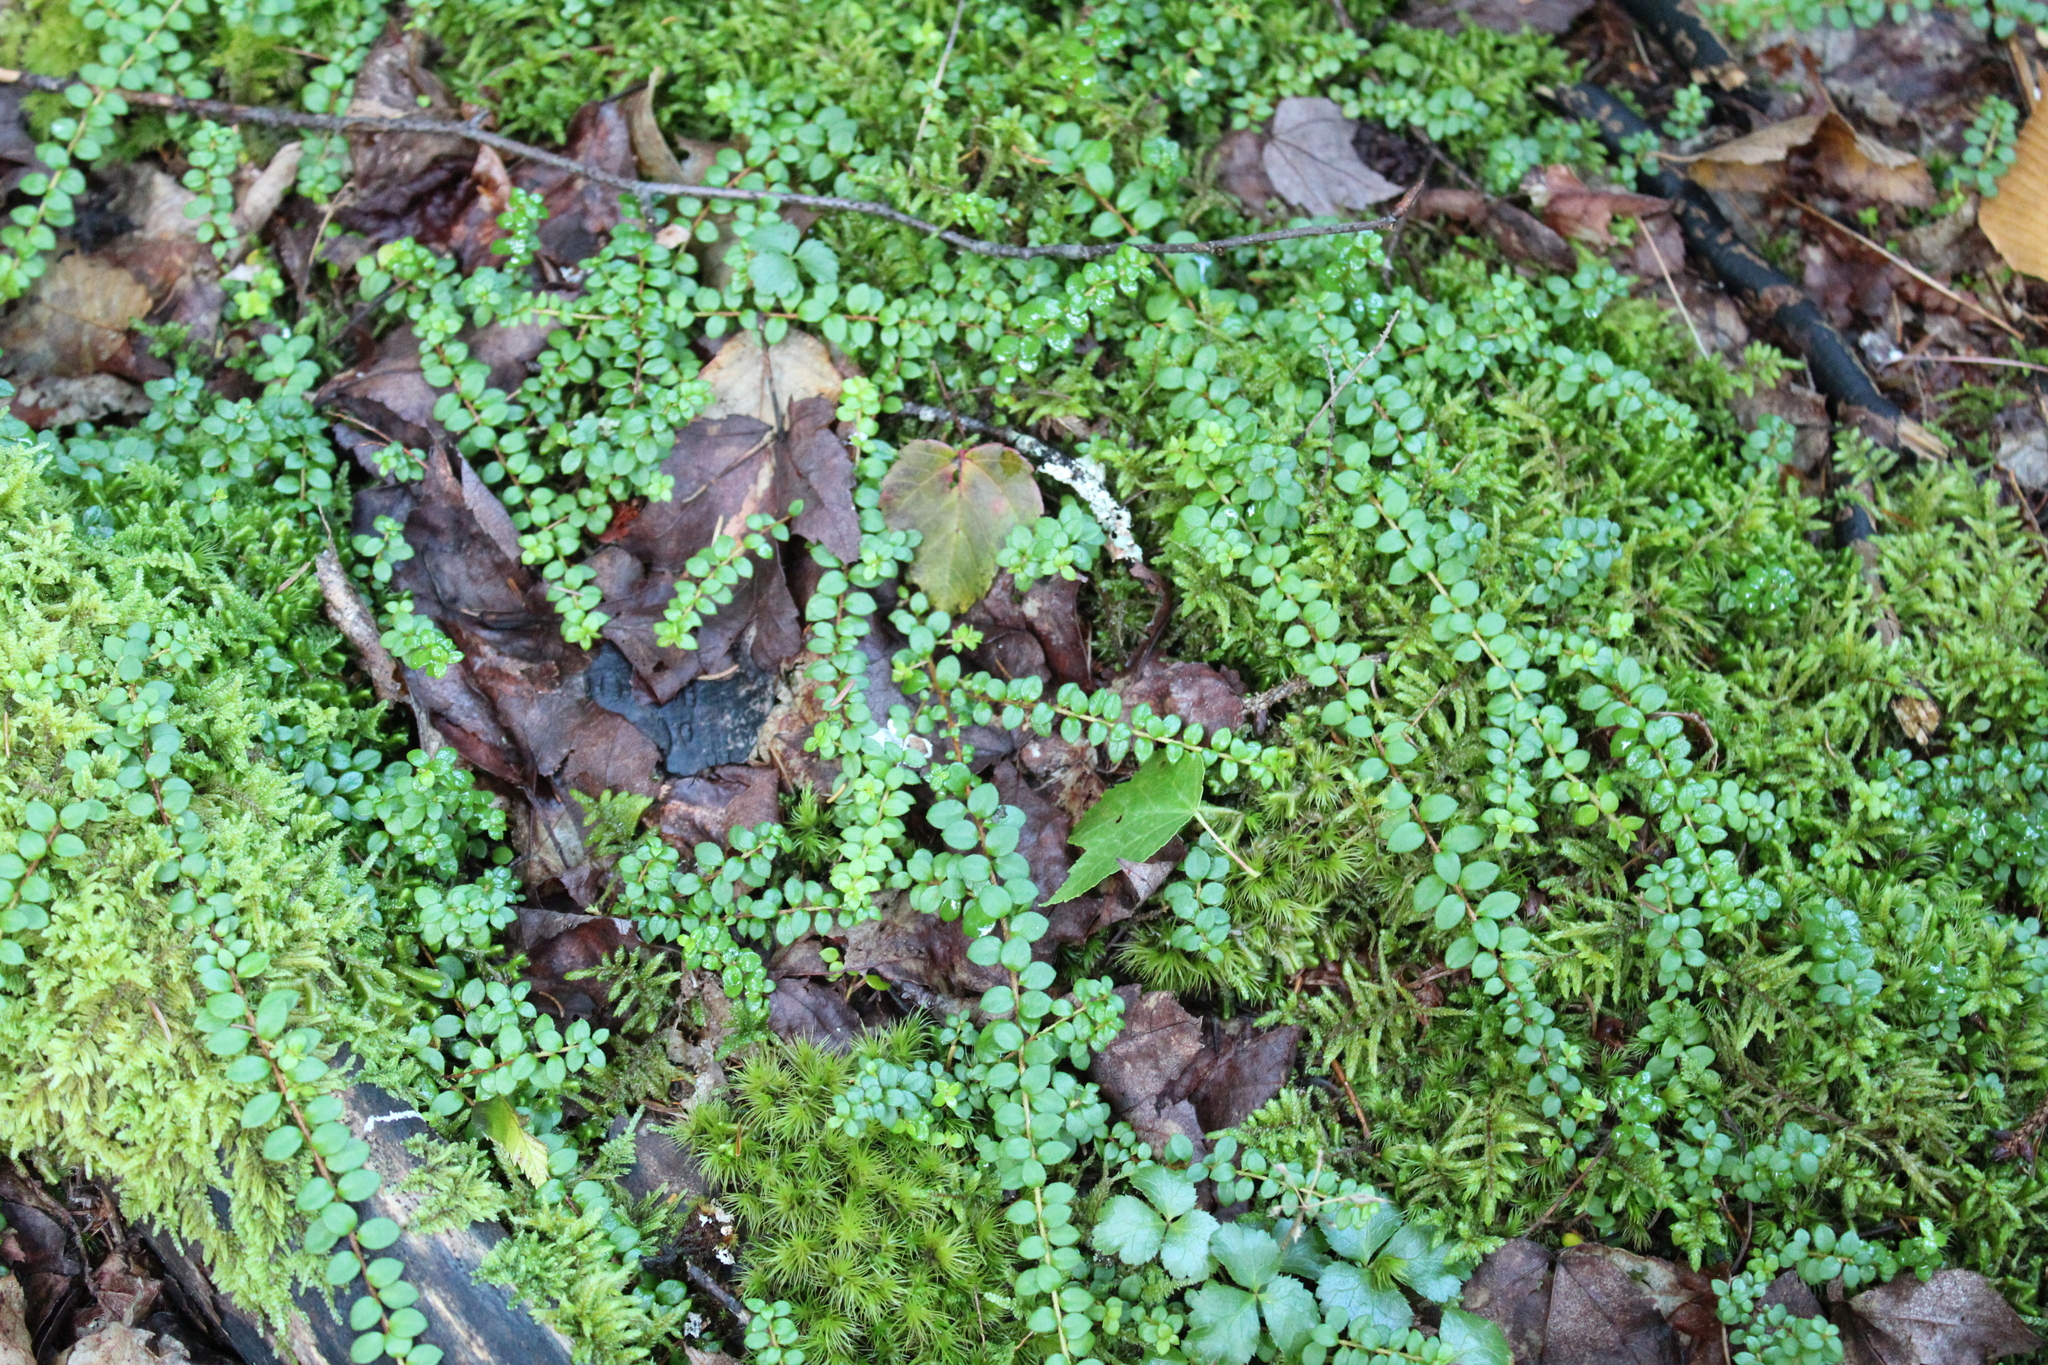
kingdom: Plantae
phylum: Tracheophyta
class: Magnoliopsida
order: Ericales
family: Ericaceae
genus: Gaultheria
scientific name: Gaultheria hispidula
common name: Cancer wintergreen
